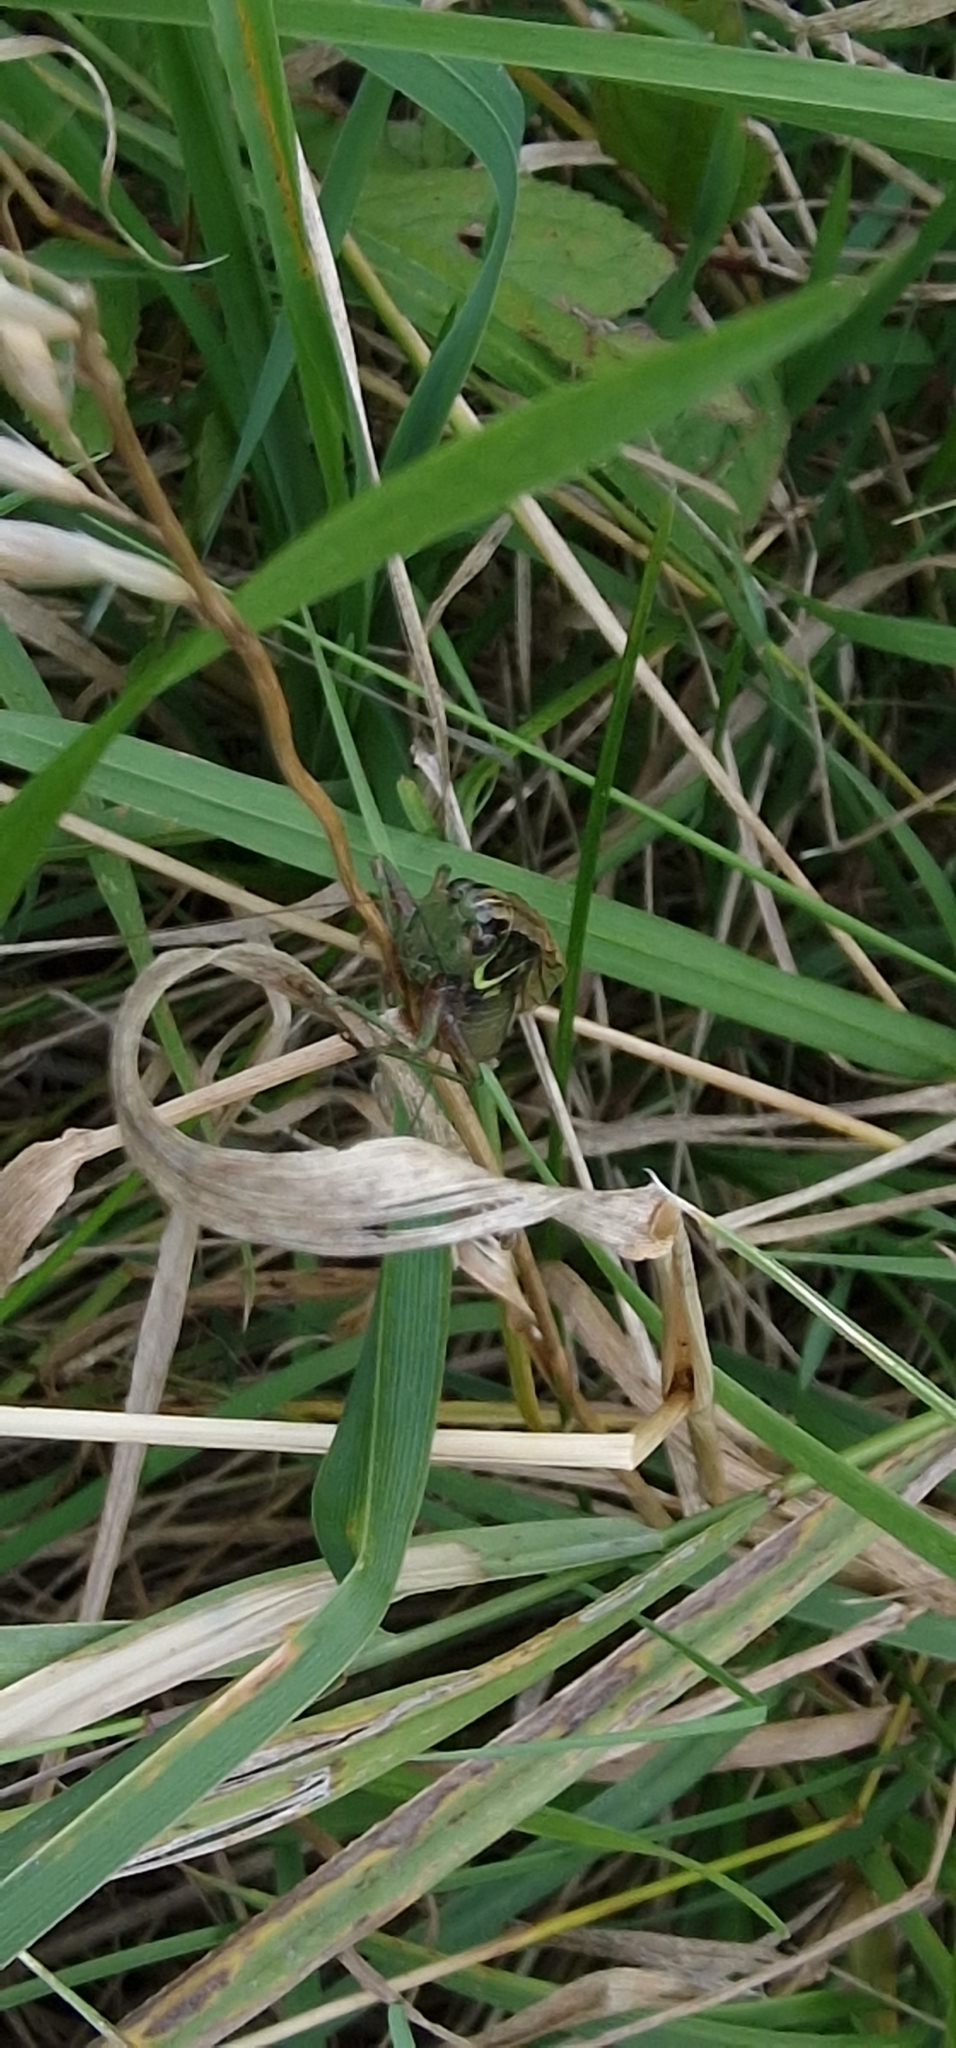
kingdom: Animalia
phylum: Arthropoda
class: Insecta
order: Orthoptera
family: Tettigoniidae
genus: Roeseliana
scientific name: Roeseliana roeselii
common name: Roesel's bush cricket
